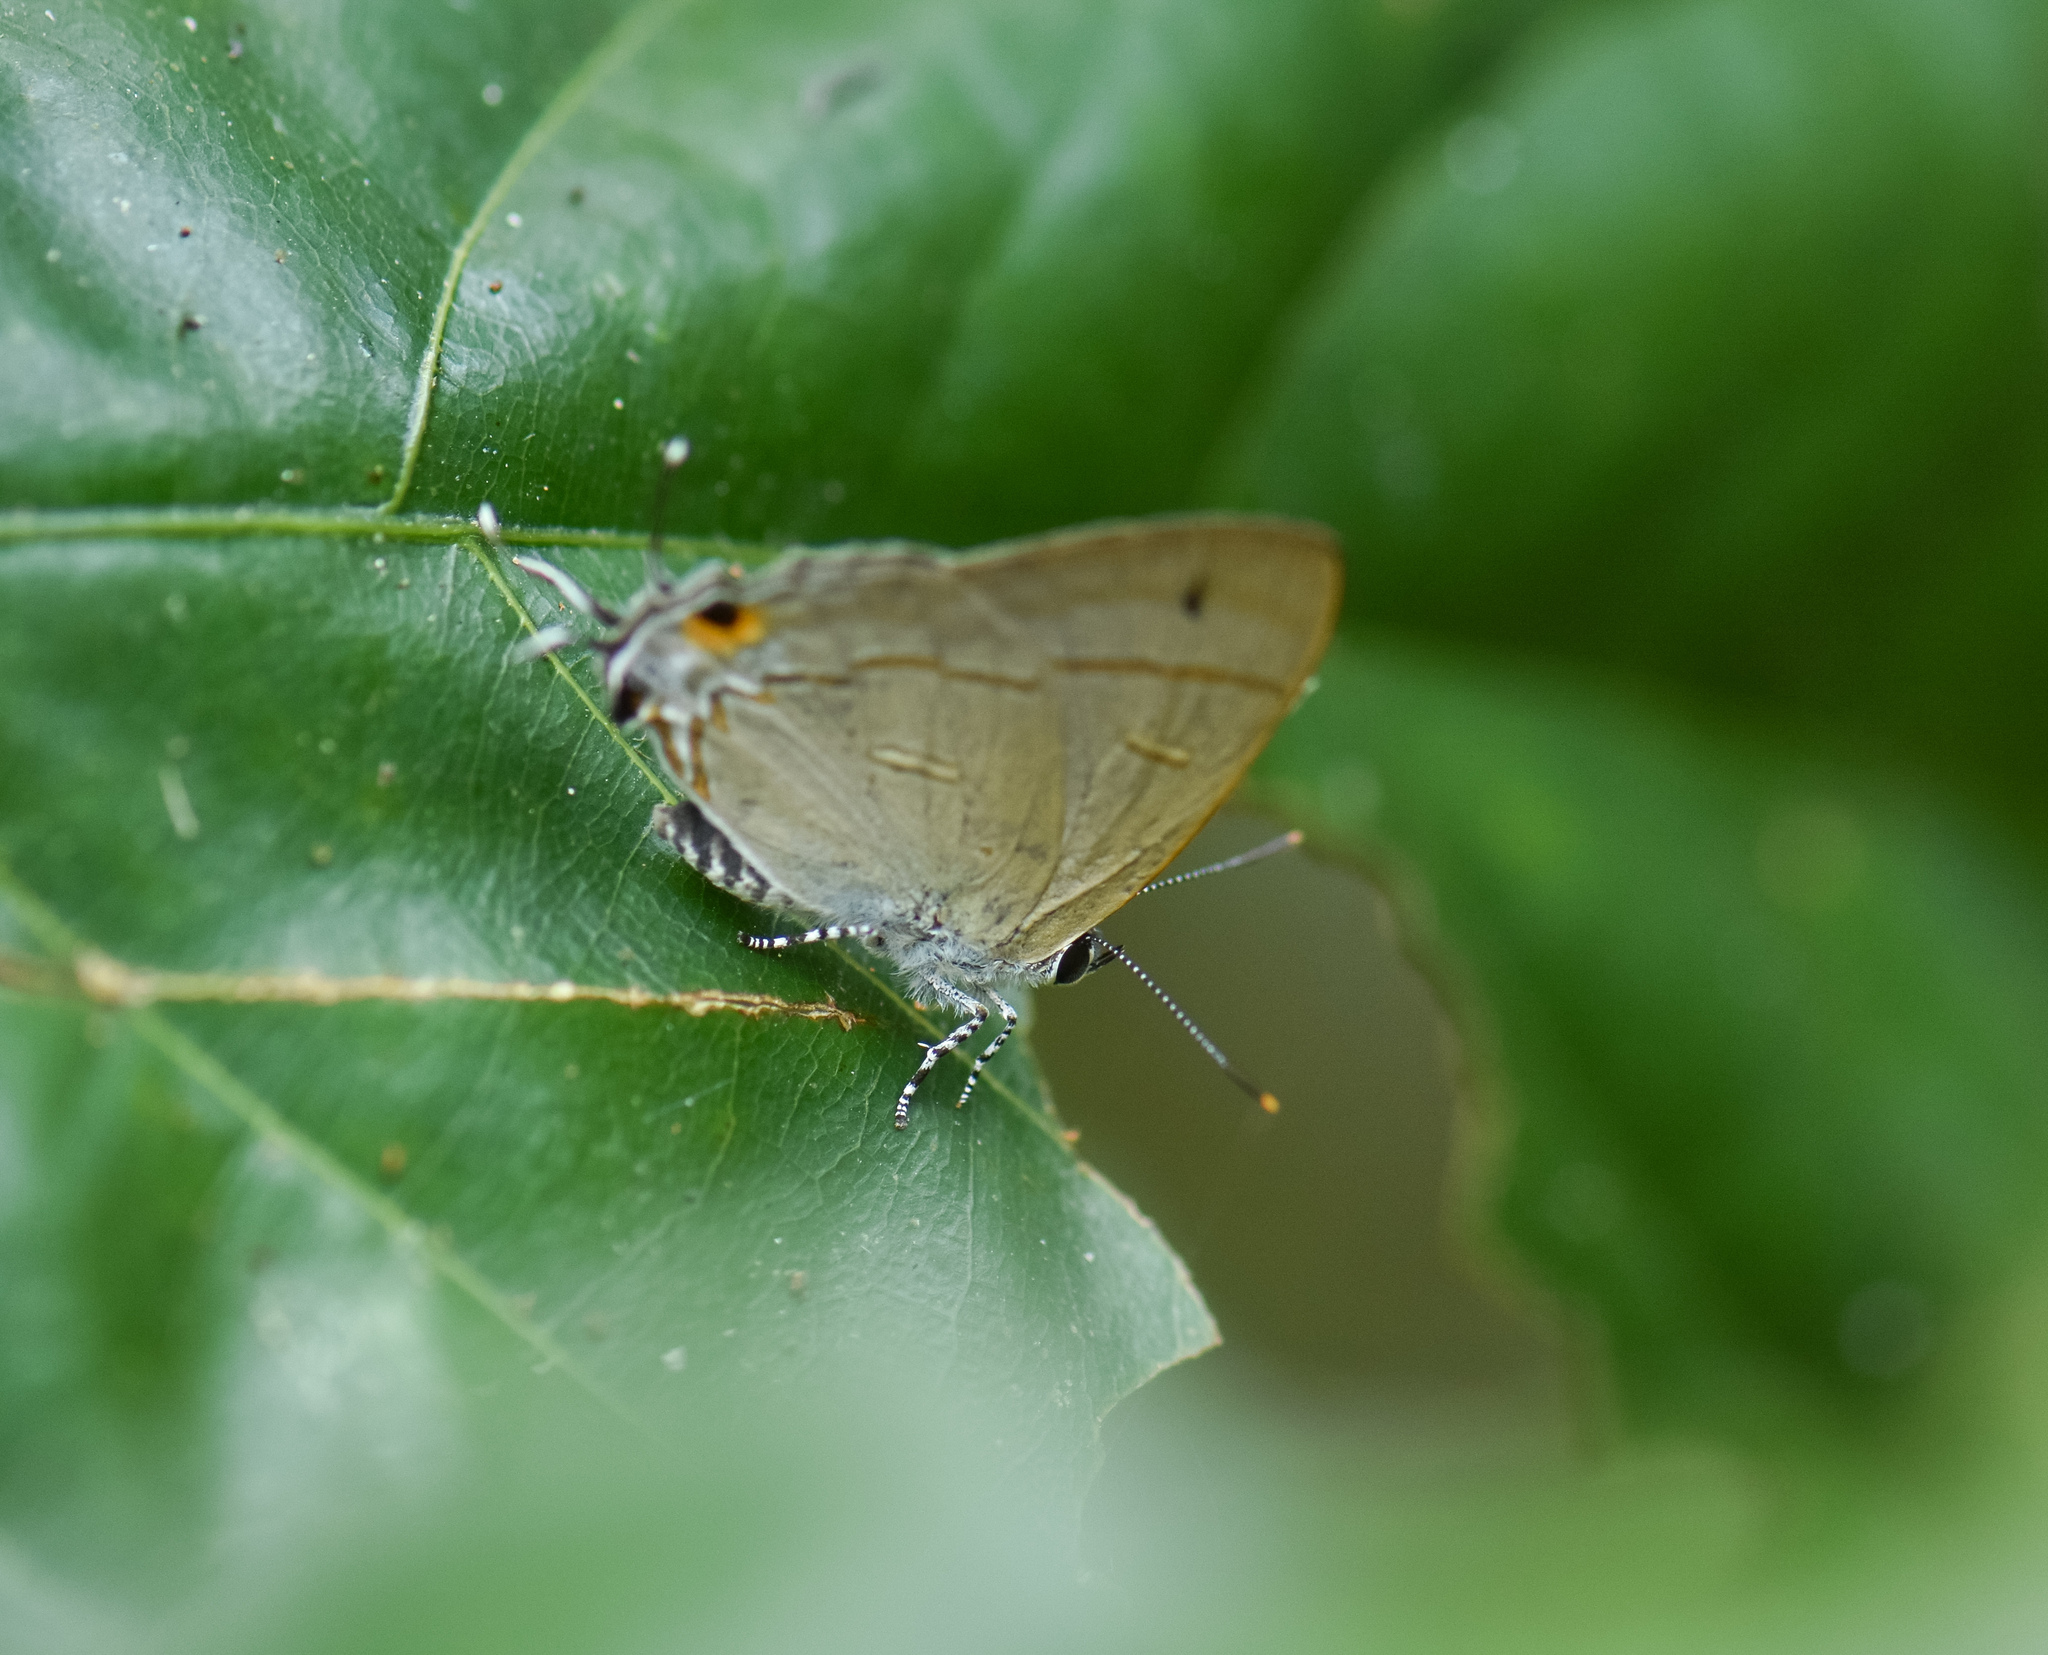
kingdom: Animalia
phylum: Arthropoda
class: Insecta
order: Lepidoptera
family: Lycaenidae
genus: Hypolycaena
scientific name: Hypolycaena erylus
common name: Common tit
